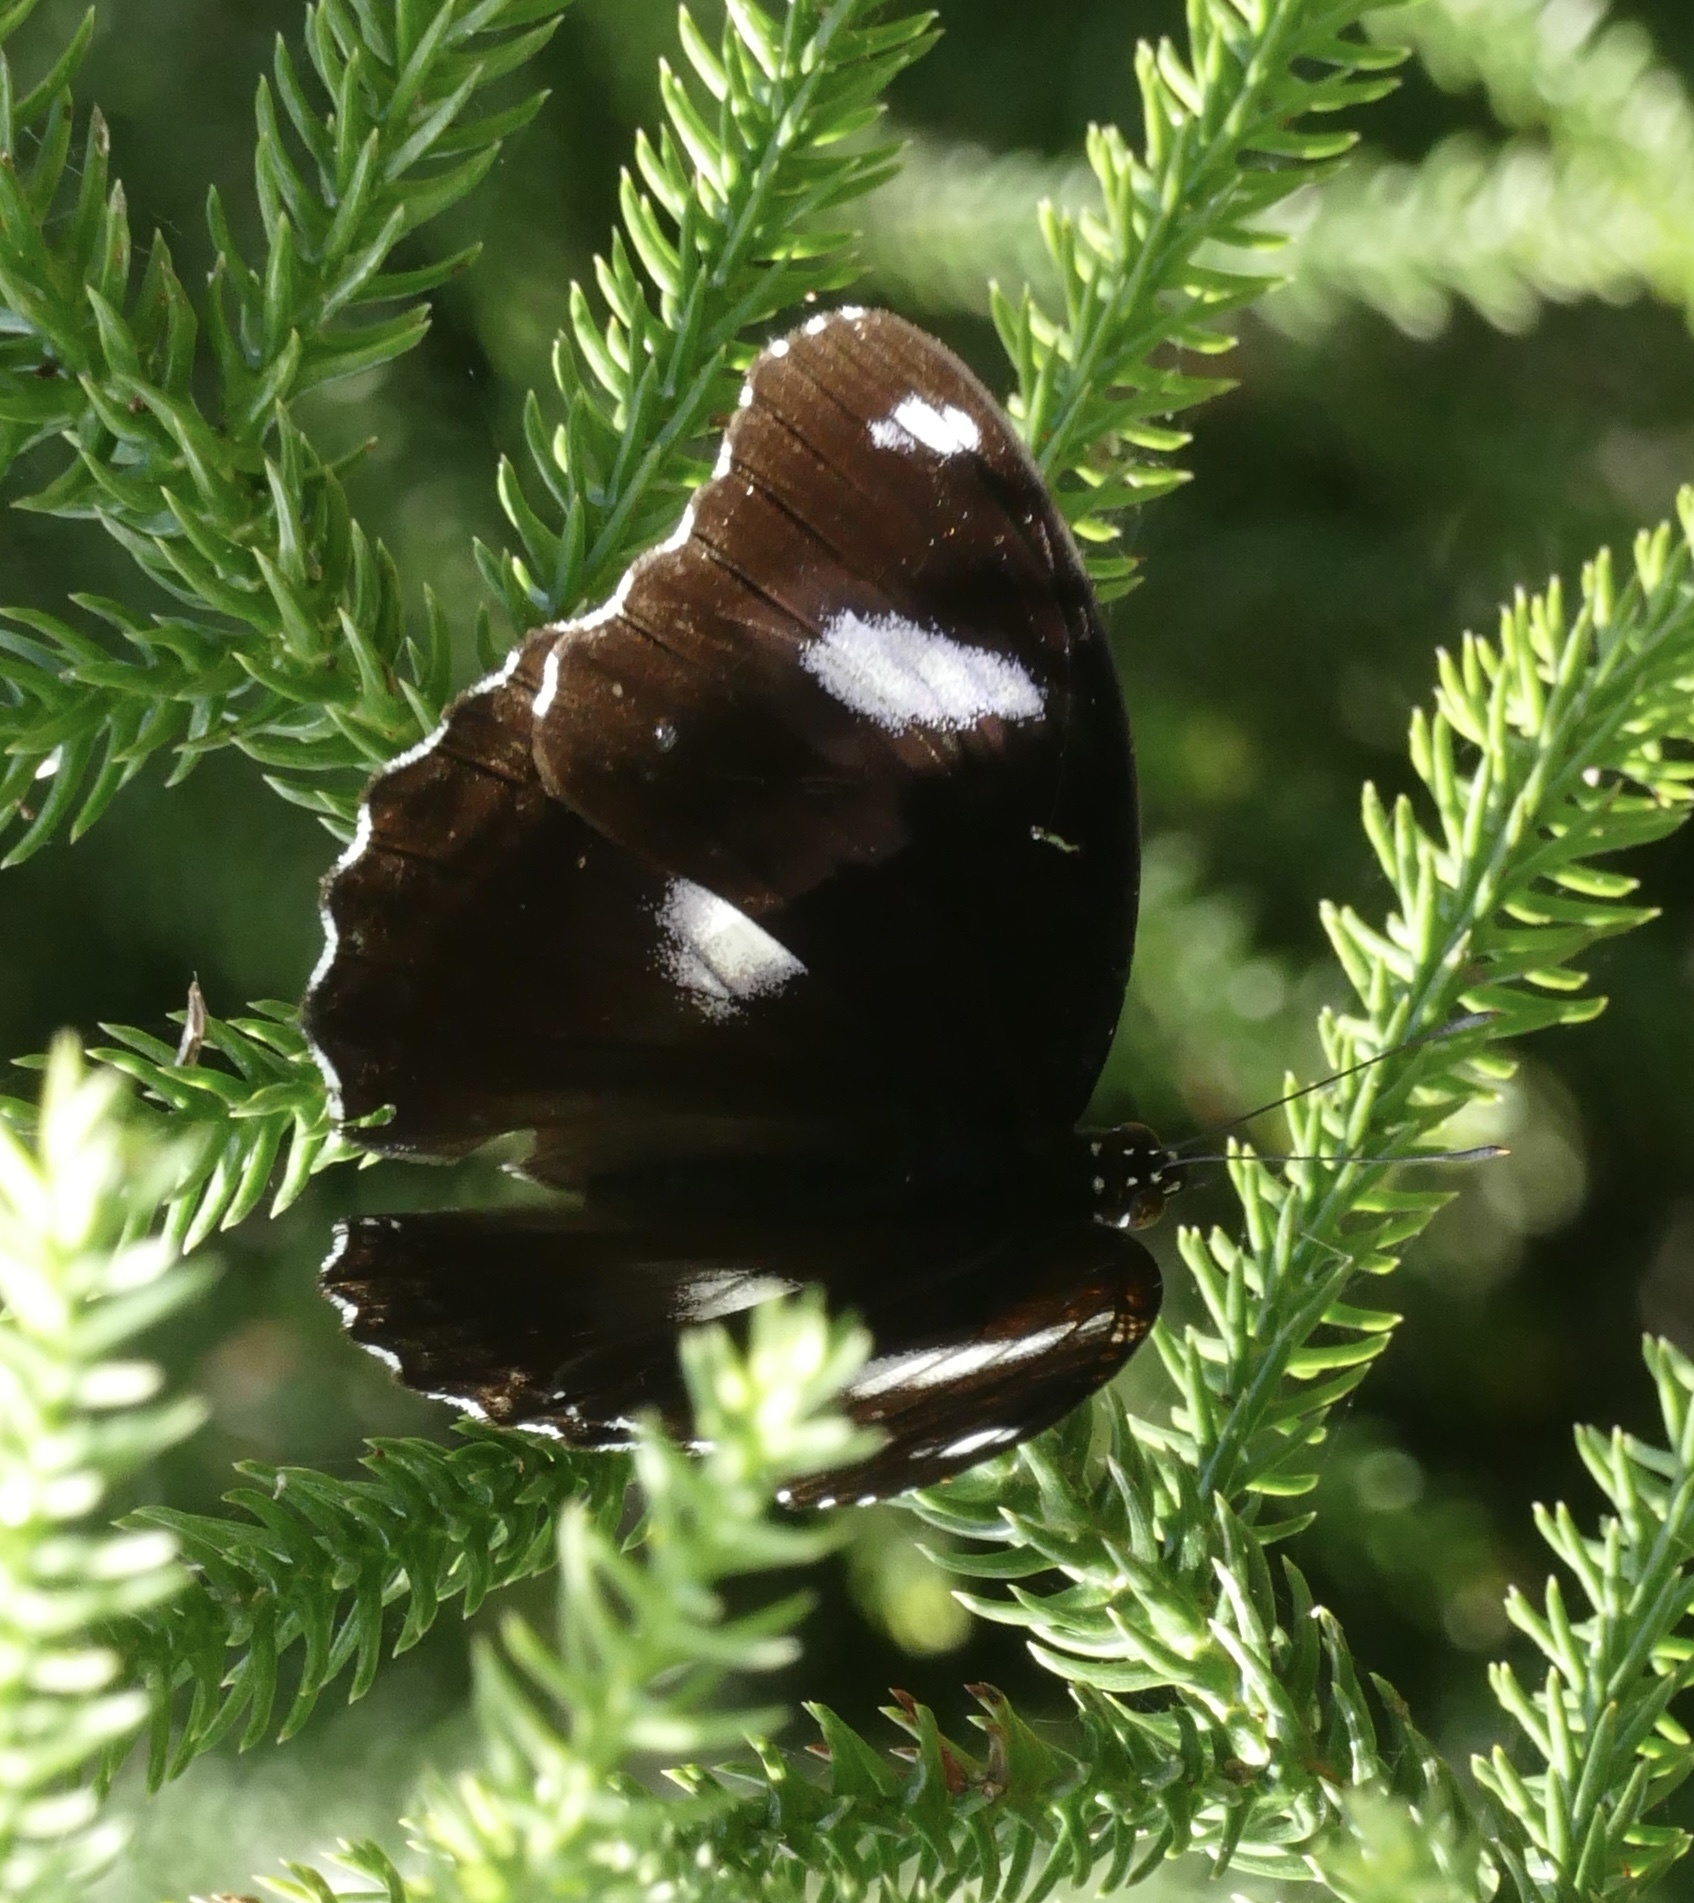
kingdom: Animalia
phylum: Arthropoda
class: Insecta
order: Lepidoptera
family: Nymphalidae
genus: Hypolimnas
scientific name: Hypolimnas bolina
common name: Great eggfly
